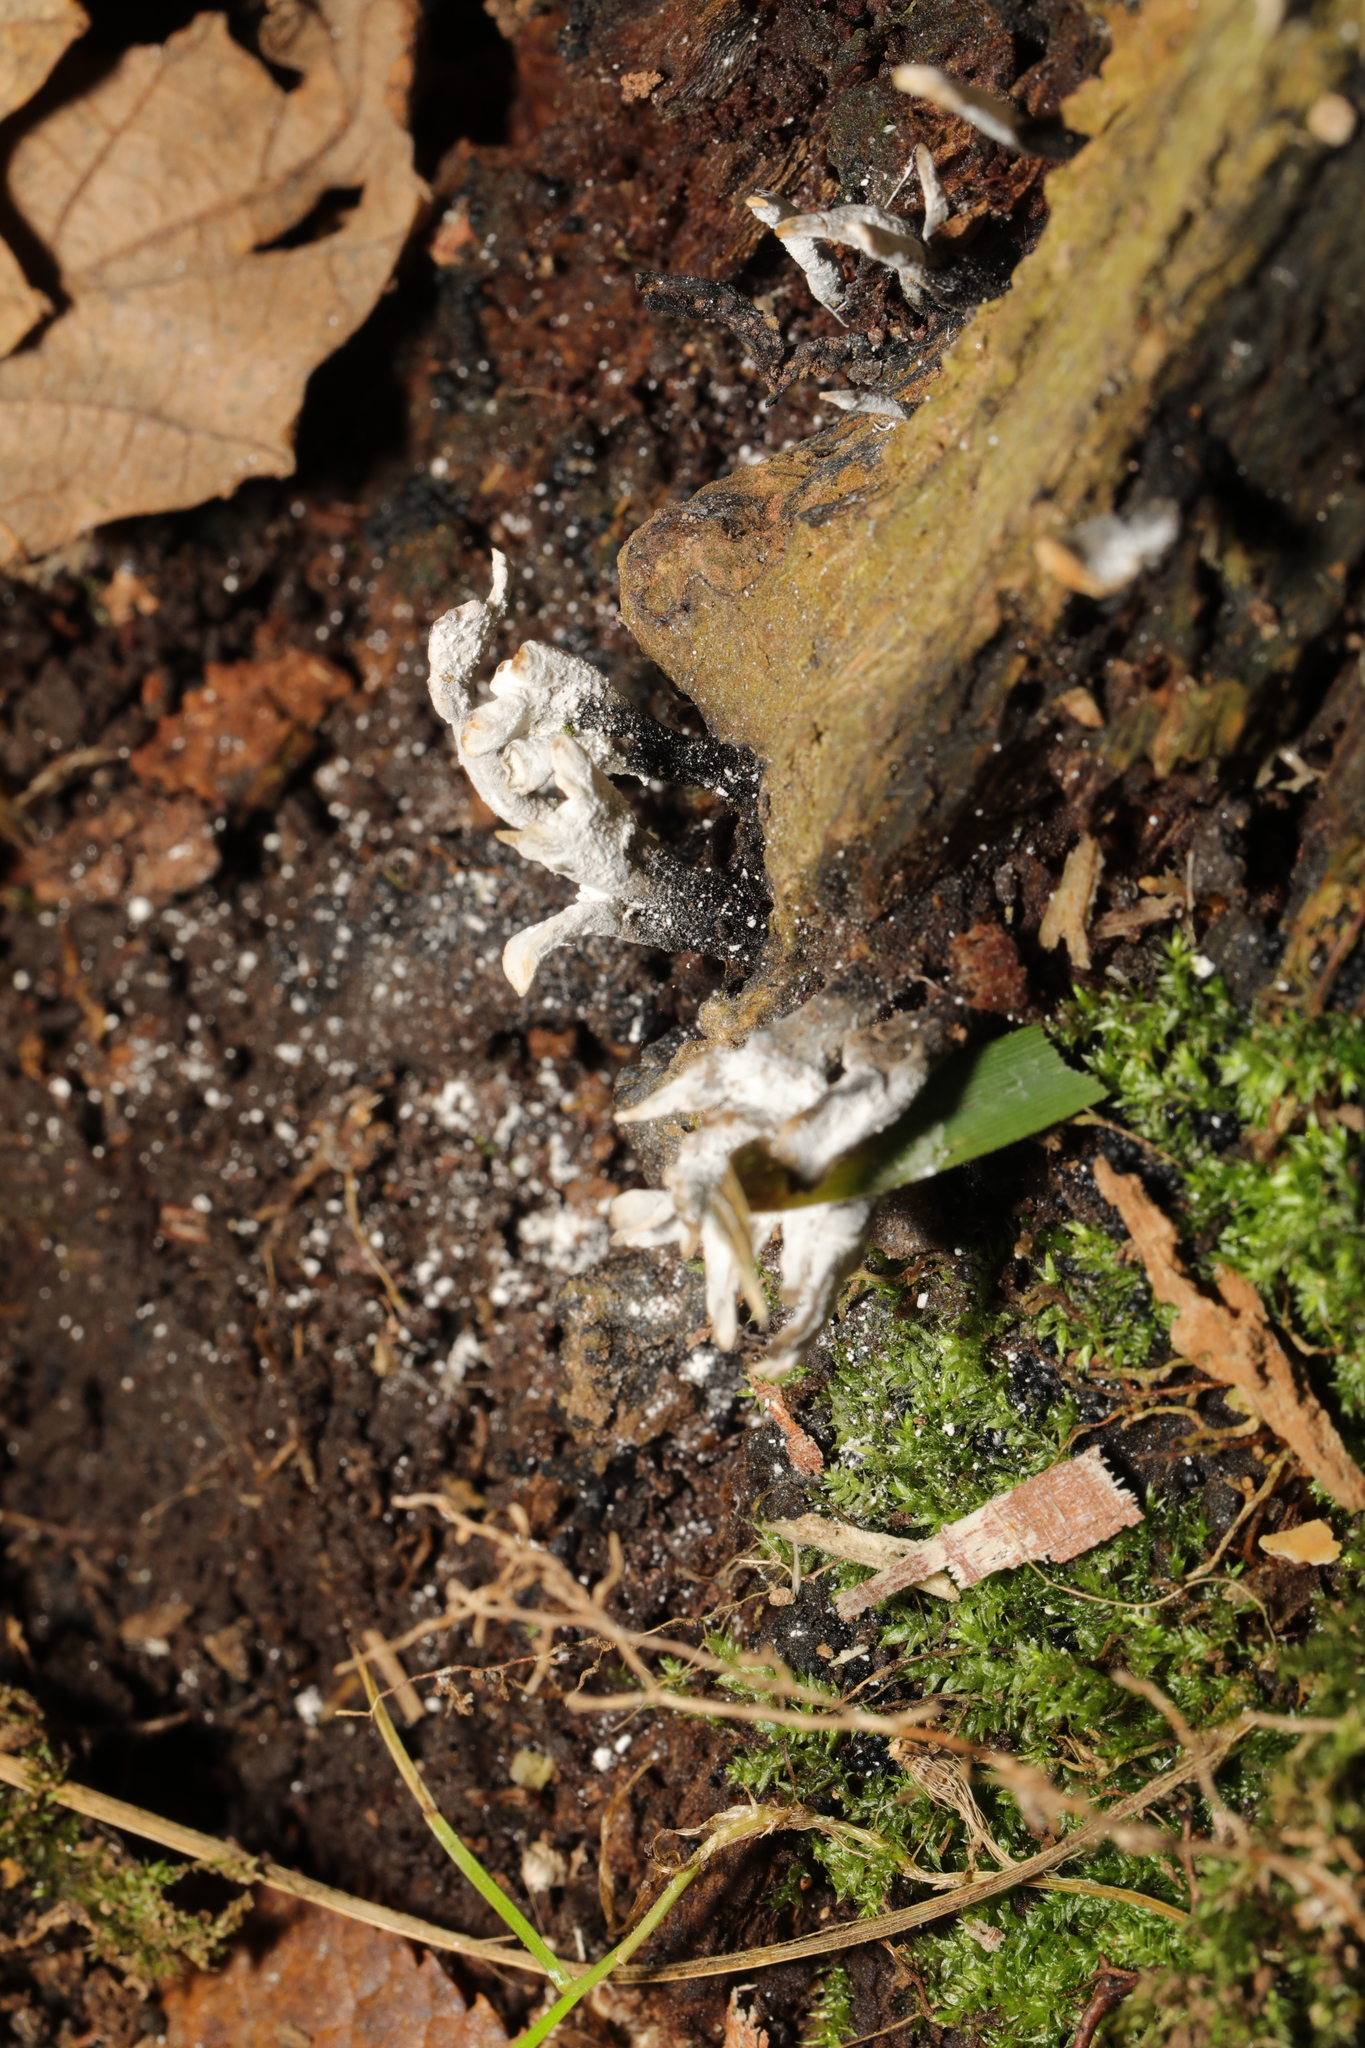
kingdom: Fungi
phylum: Ascomycota
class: Sordariomycetes
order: Xylariales
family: Xylariaceae
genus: Xylaria
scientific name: Xylaria hypoxylon
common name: Candle-snuff fungus
